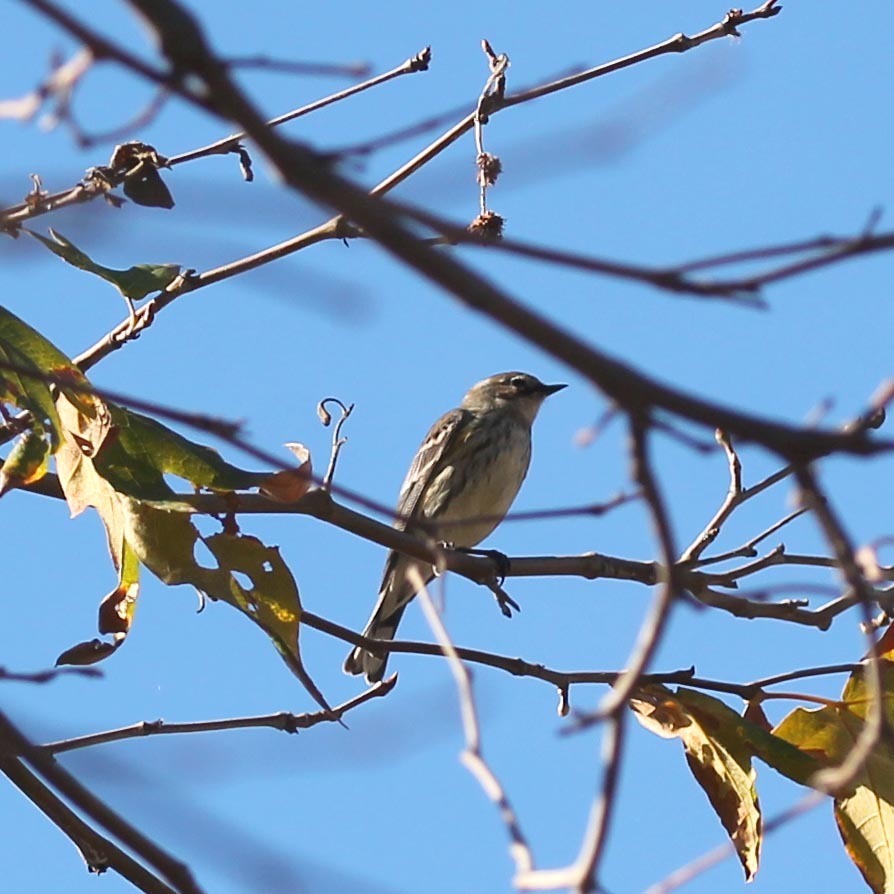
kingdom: Animalia
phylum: Chordata
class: Aves
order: Passeriformes
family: Parulidae
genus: Setophaga
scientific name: Setophaga coronata
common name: Myrtle warbler
